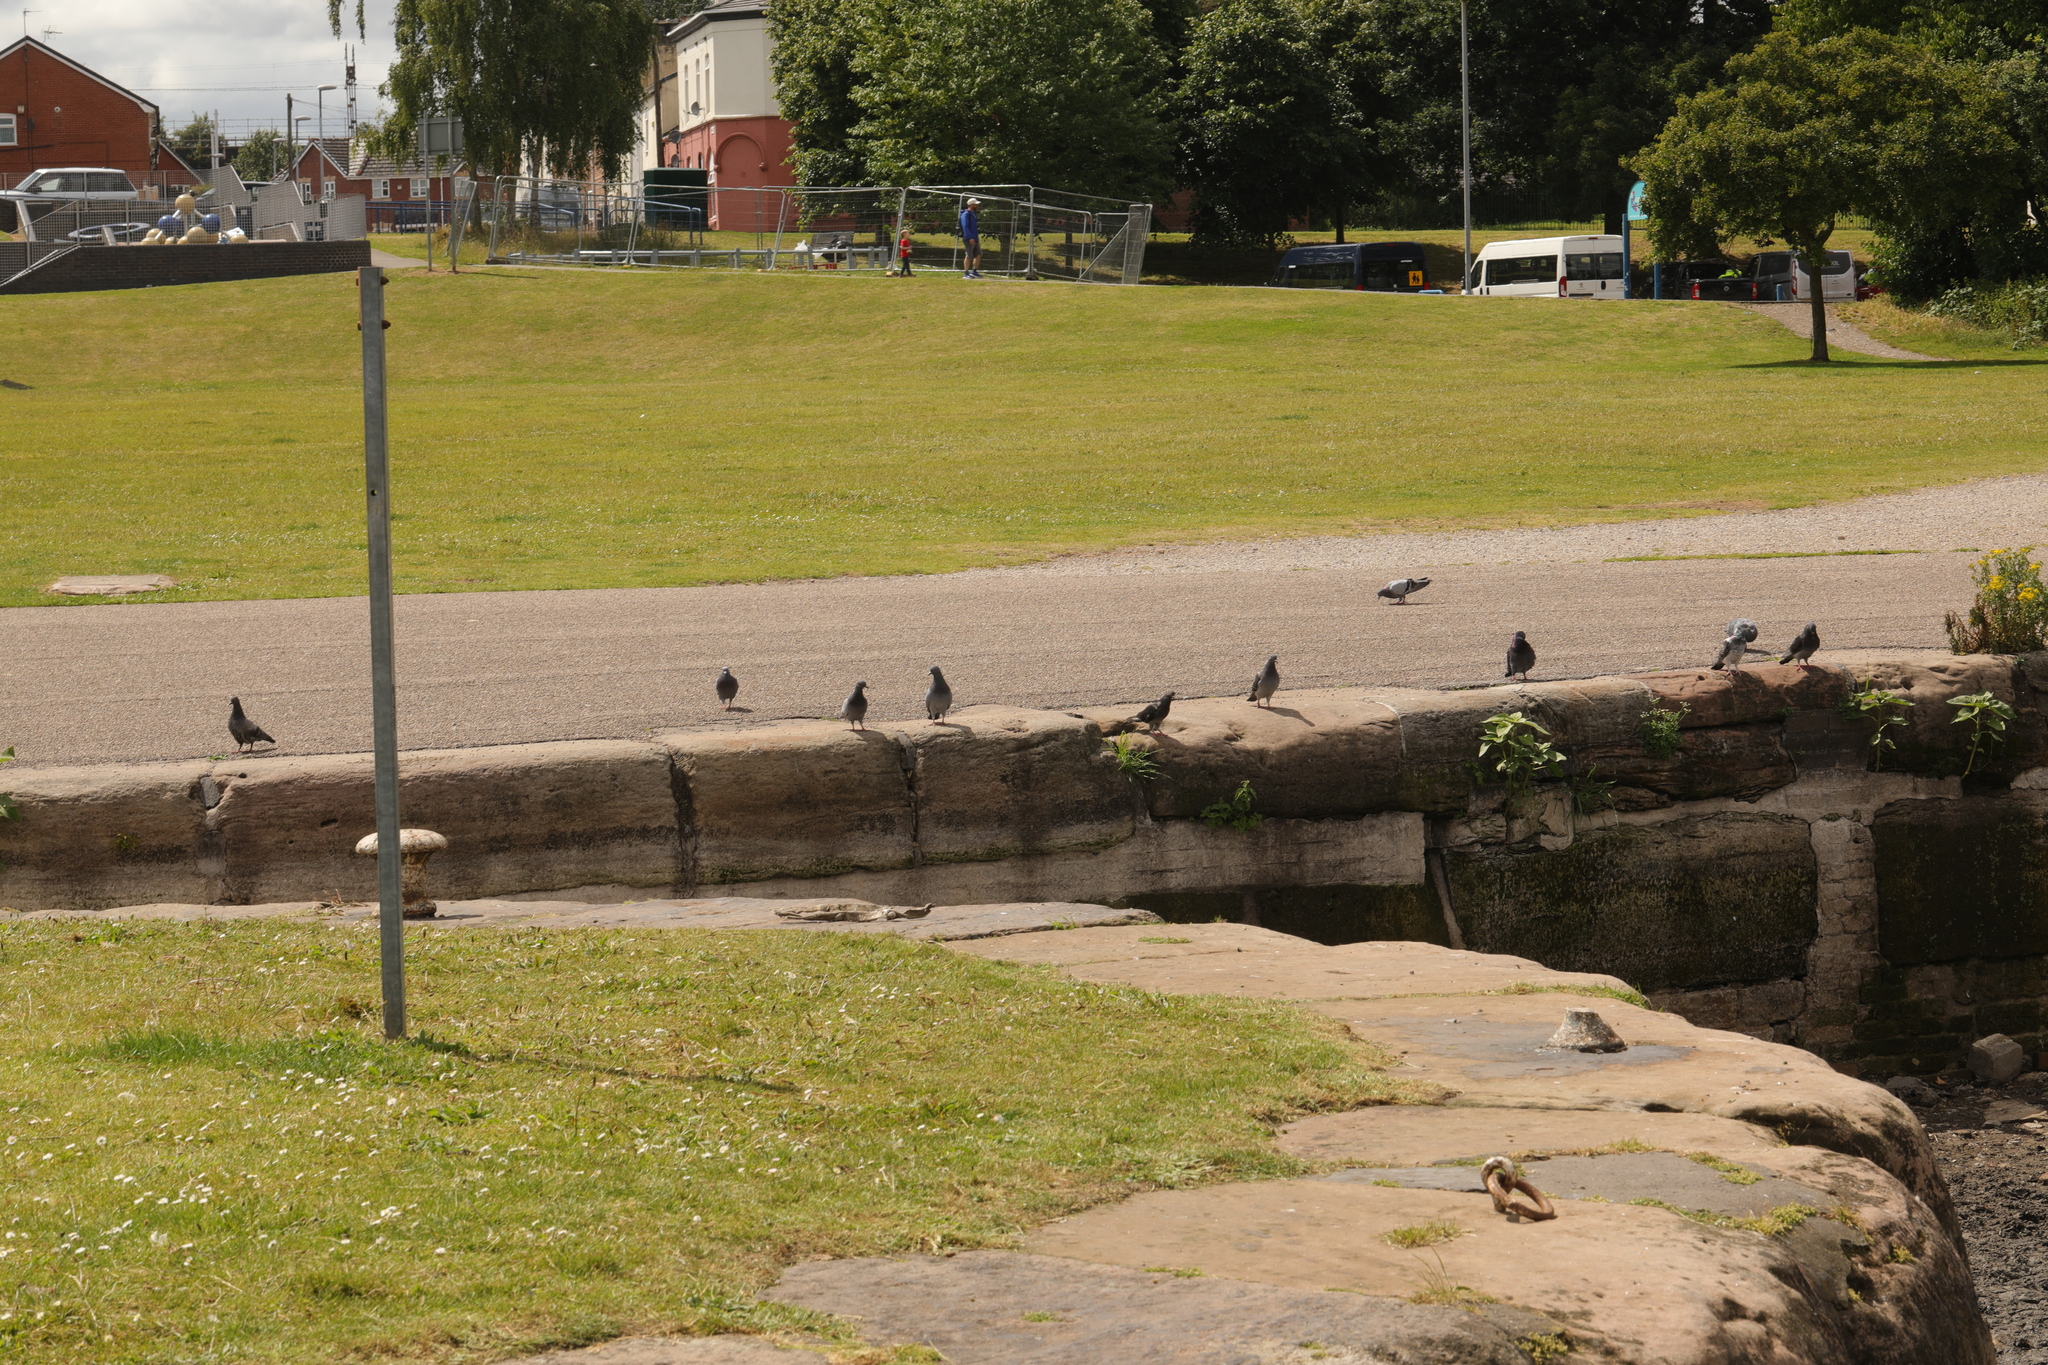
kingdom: Animalia
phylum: Chordata
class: Aves
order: Columbiformes
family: Columbidae
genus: Columba
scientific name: Columba livia
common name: Rock pigeon
